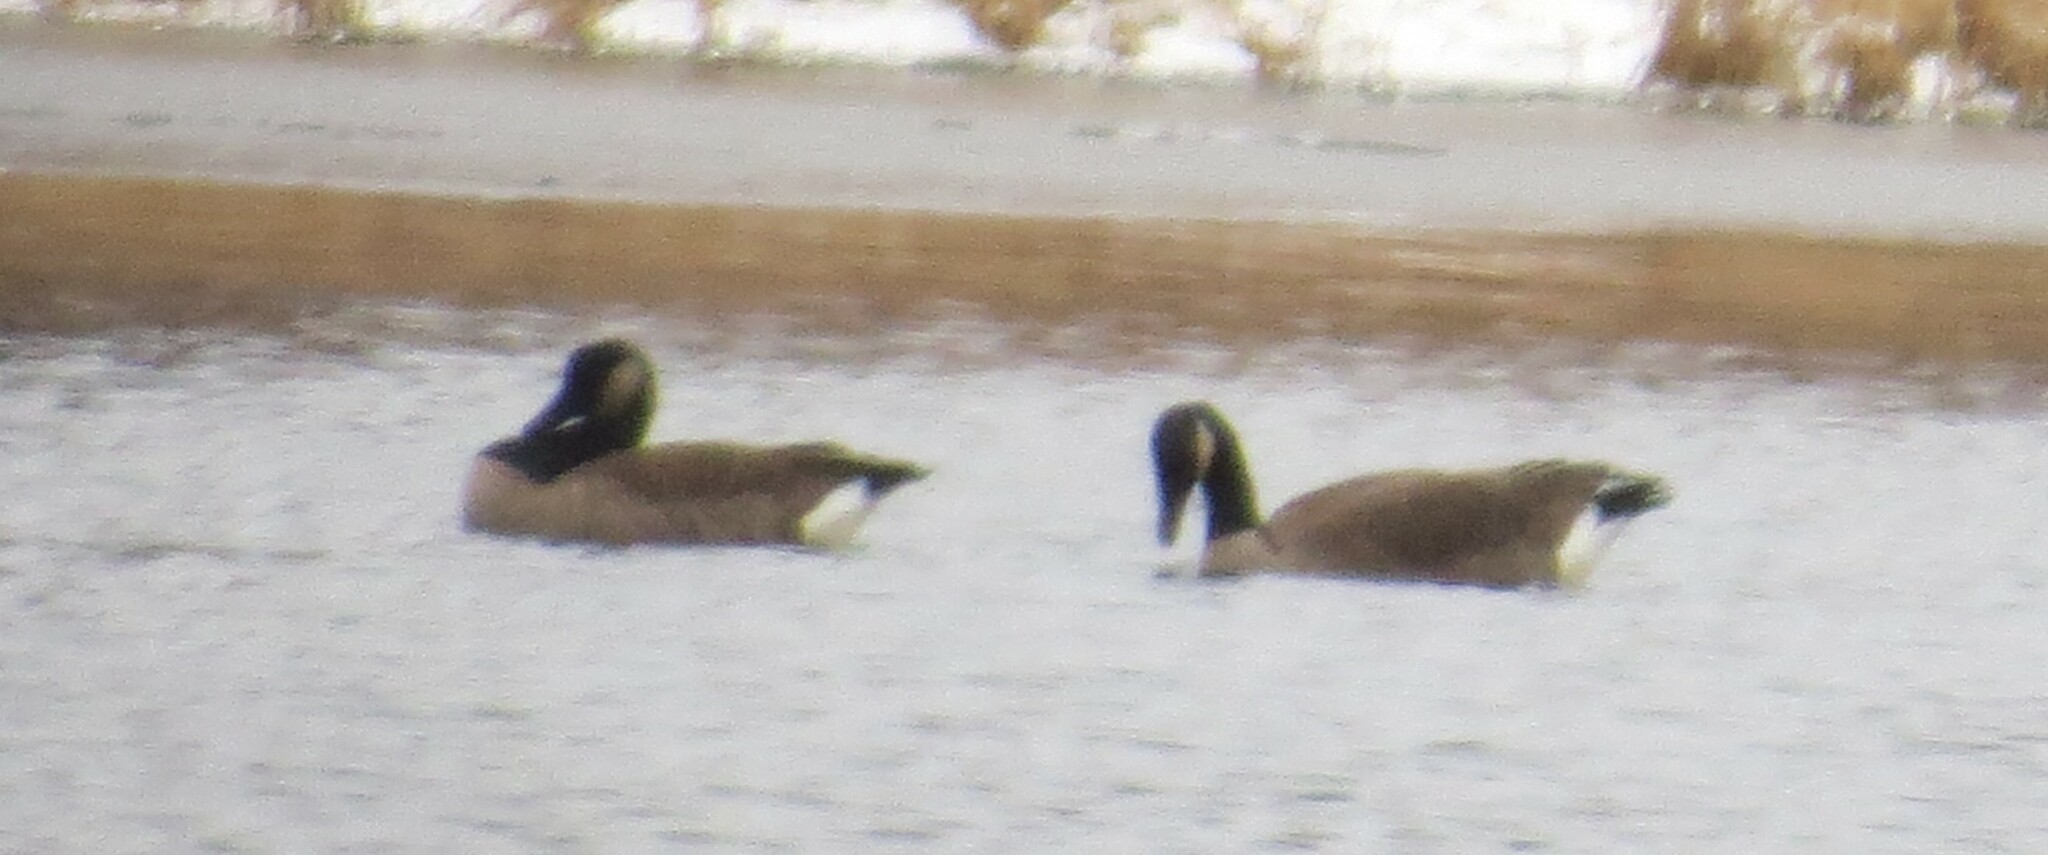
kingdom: Animalia
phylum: Chordata
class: Aves
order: Anseriformes
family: Anatidae
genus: Branta
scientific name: Branta canadensis
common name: Canada goose
